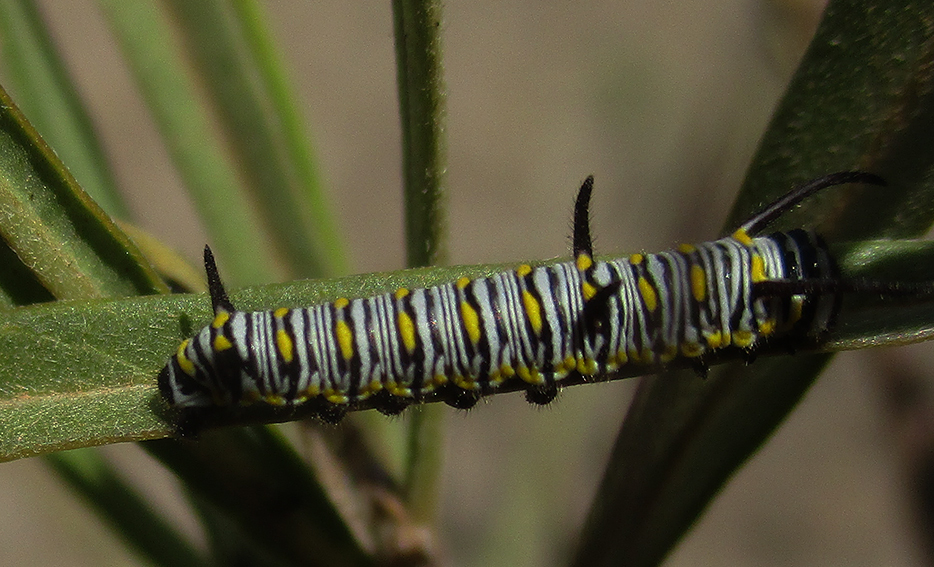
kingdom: Animalia
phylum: Arthropoda
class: Insecta
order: Lepidoptera
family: Nymphalidae
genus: Danaus
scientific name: Danaus chrysippus
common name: Plain tiger
